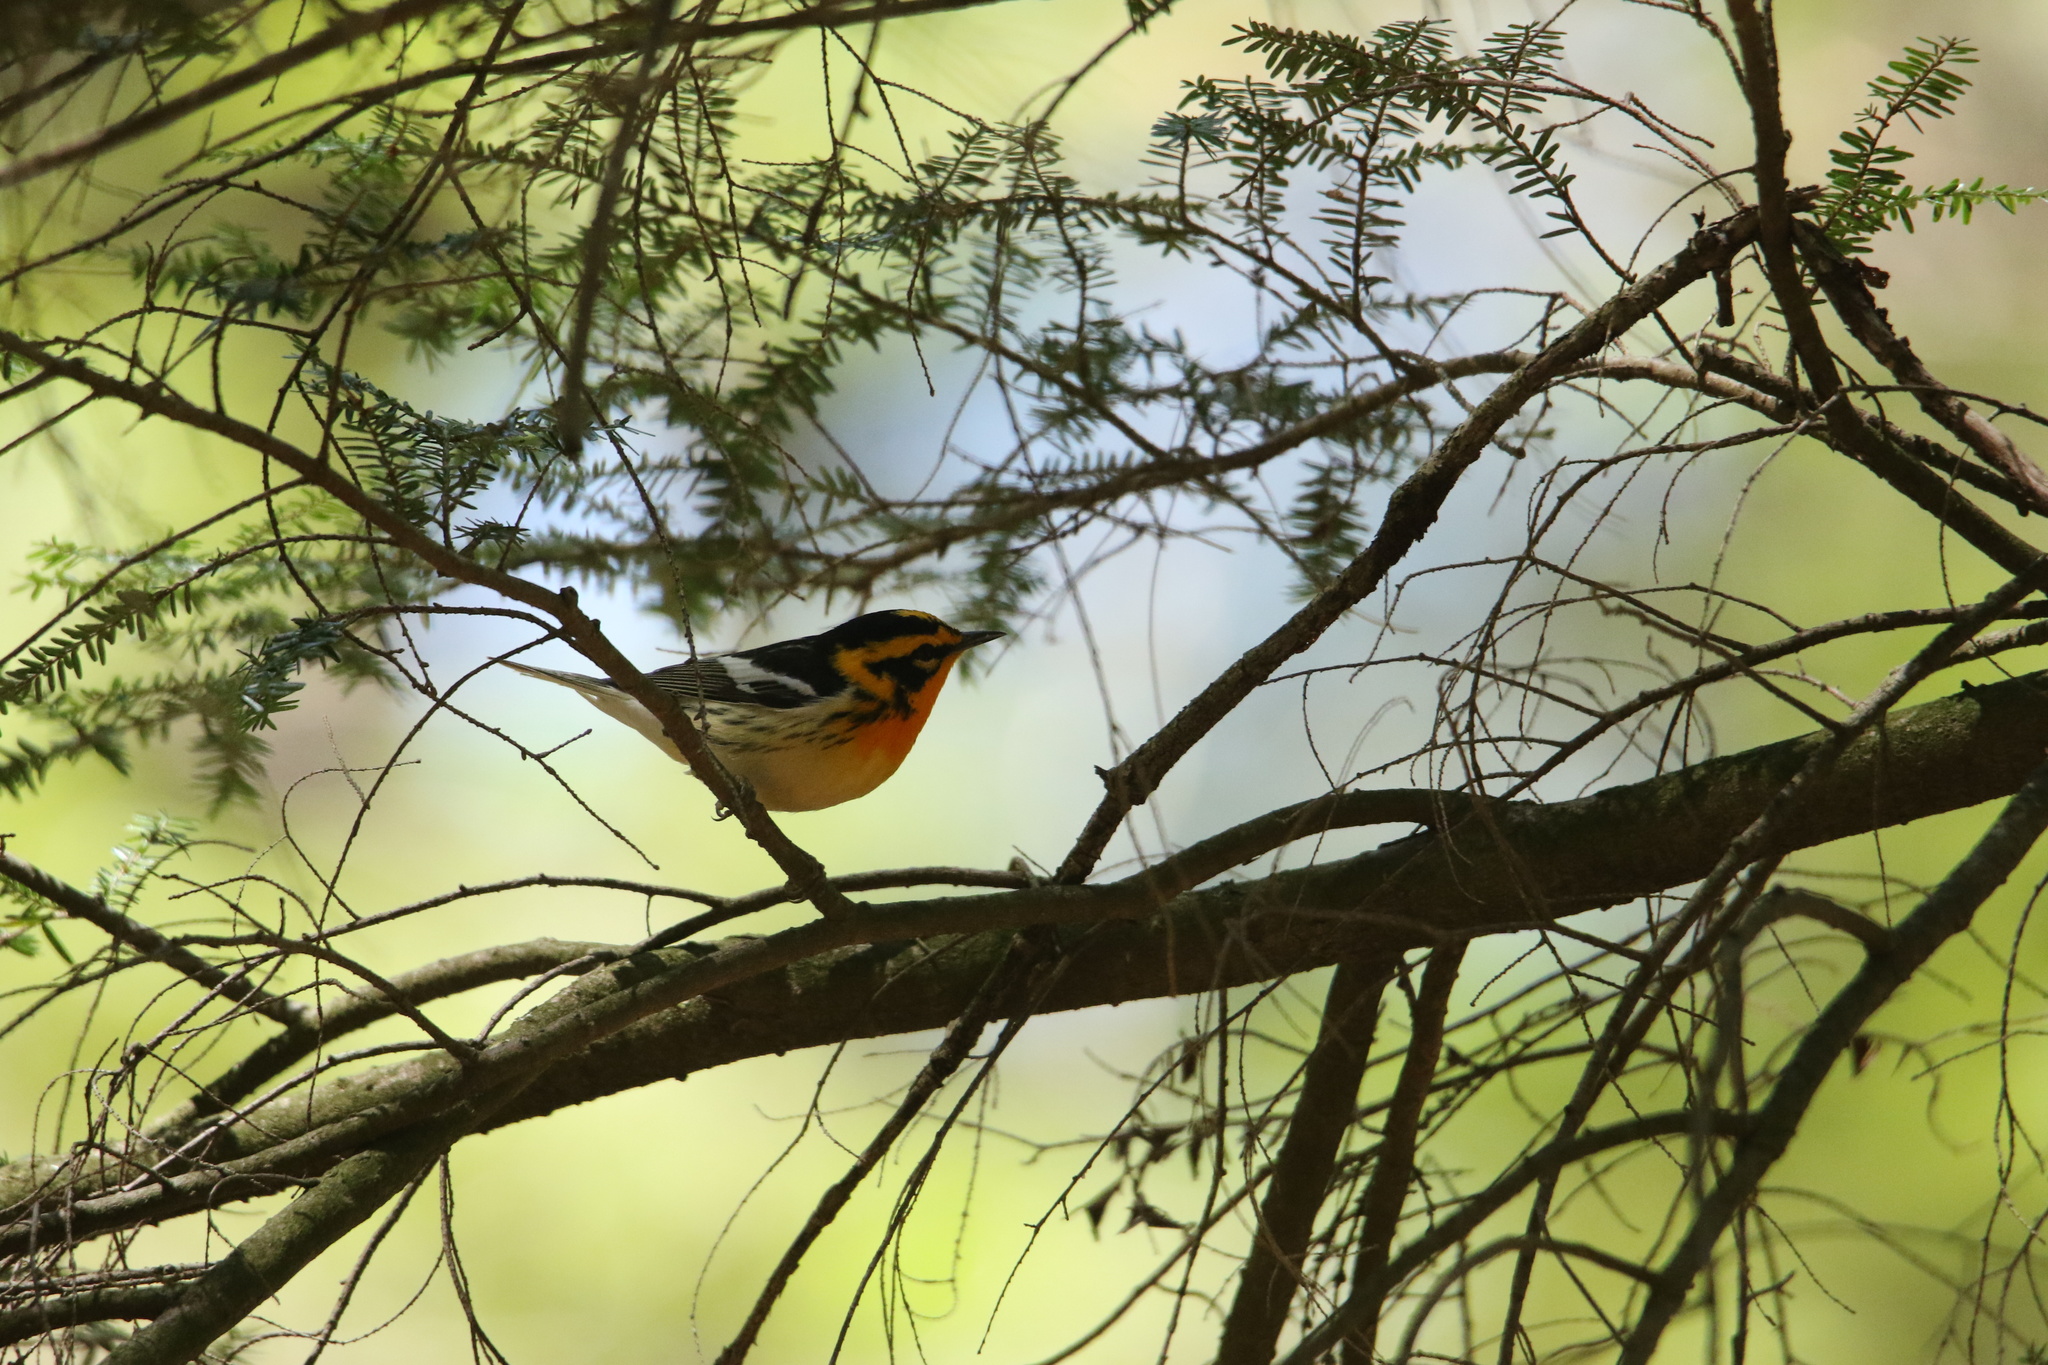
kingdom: Animalia
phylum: Chordata
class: Aves
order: Passeriformes
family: Parulidae
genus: Setophaga
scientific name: Setophaga fusca
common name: Blackburnian warbler
